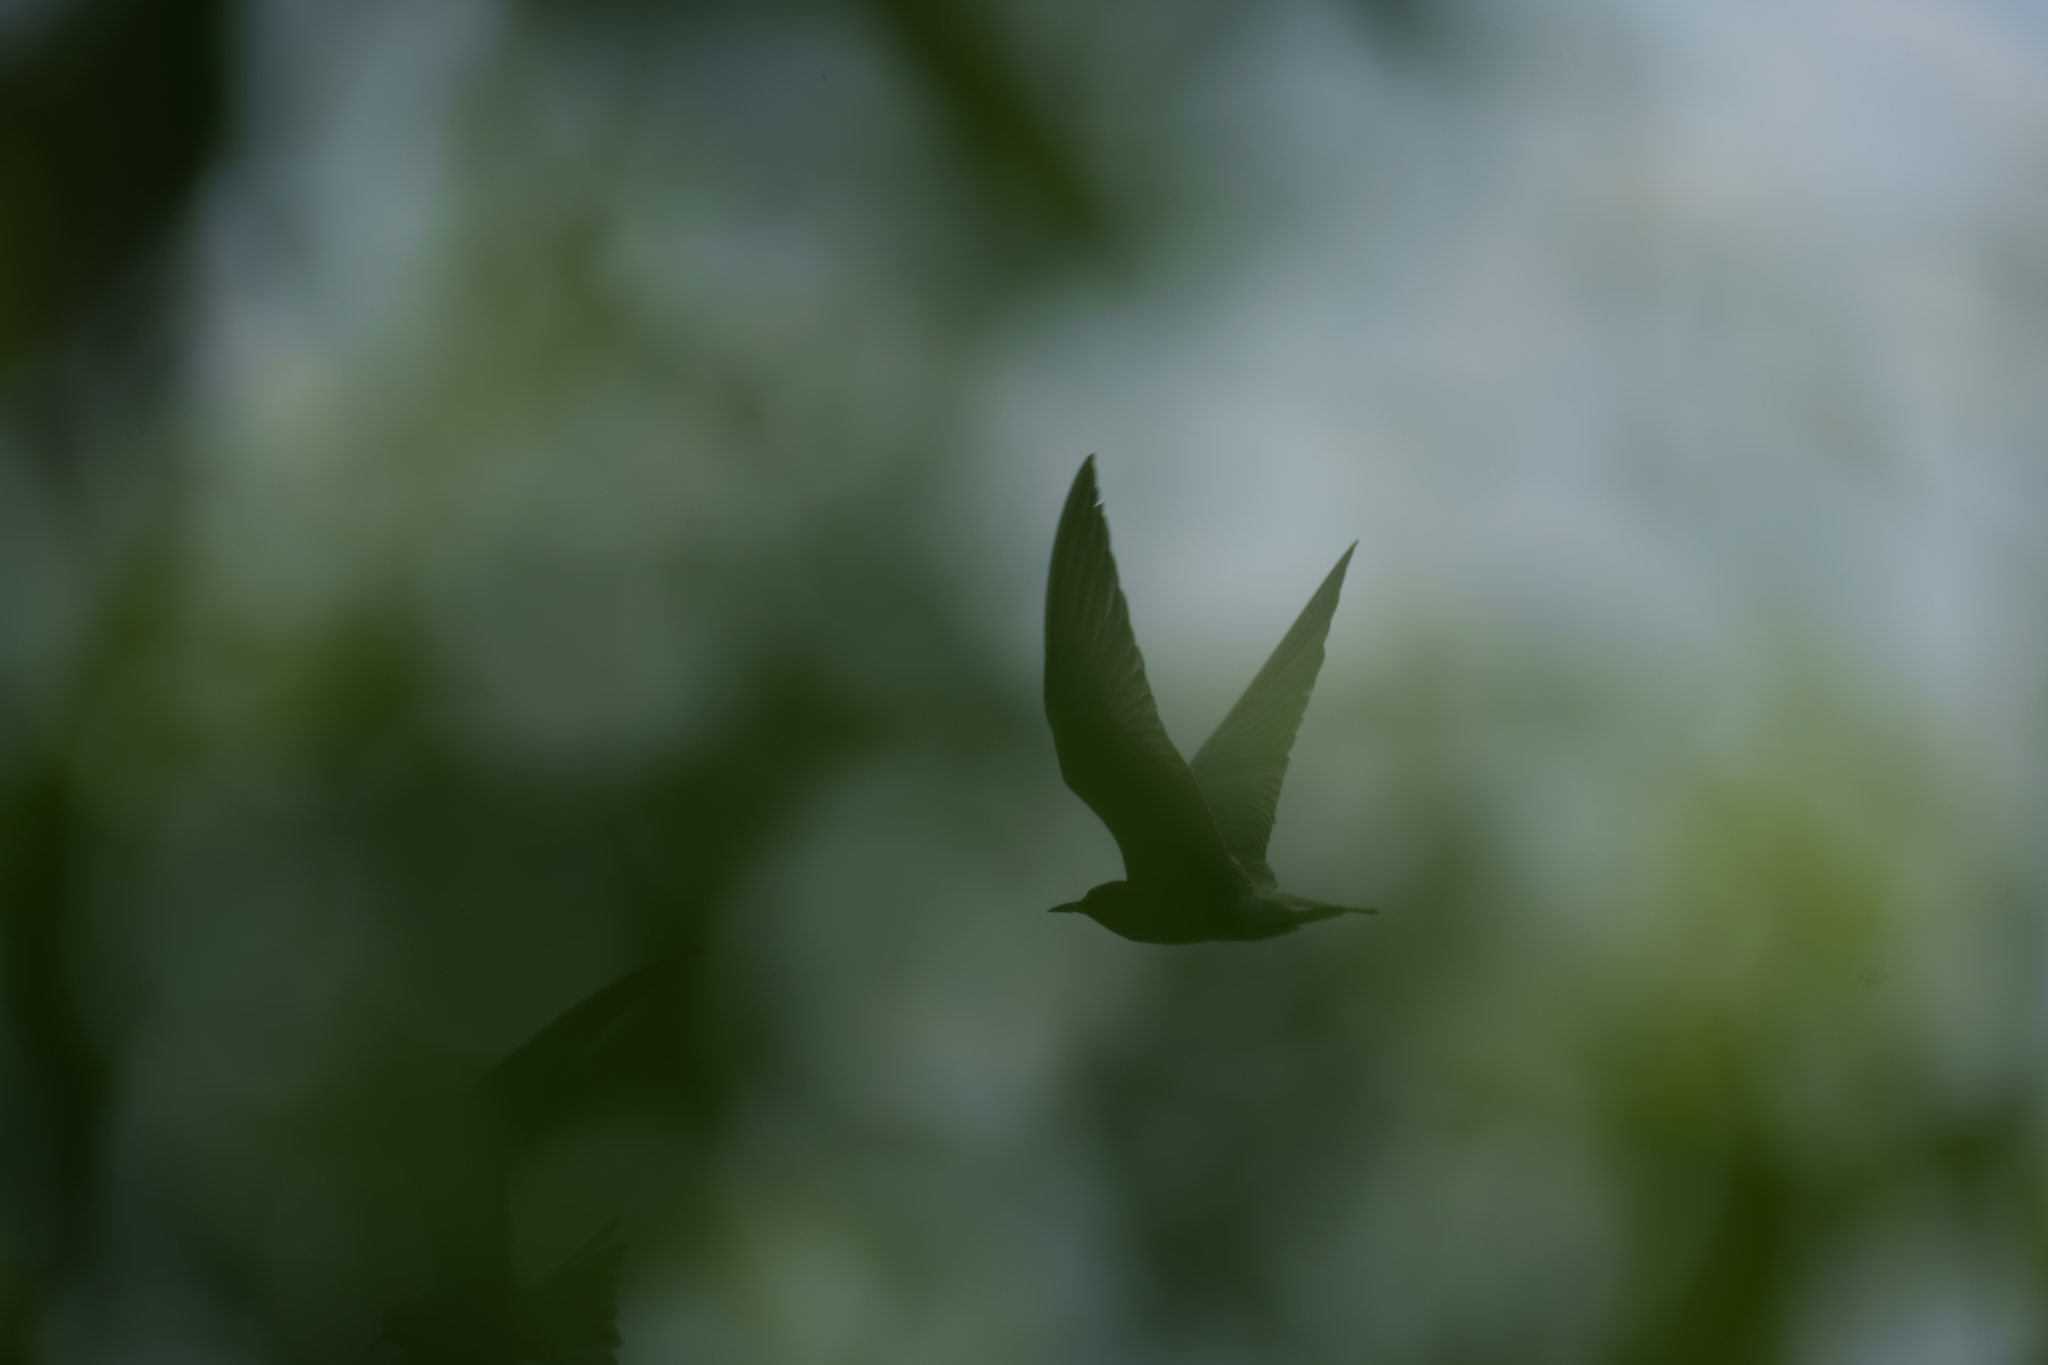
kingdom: Animalia
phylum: Chordata
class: Aves
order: Charadriiformes
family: Laridae
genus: Chlidonias
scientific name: Chlidonias niger
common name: Black tern
